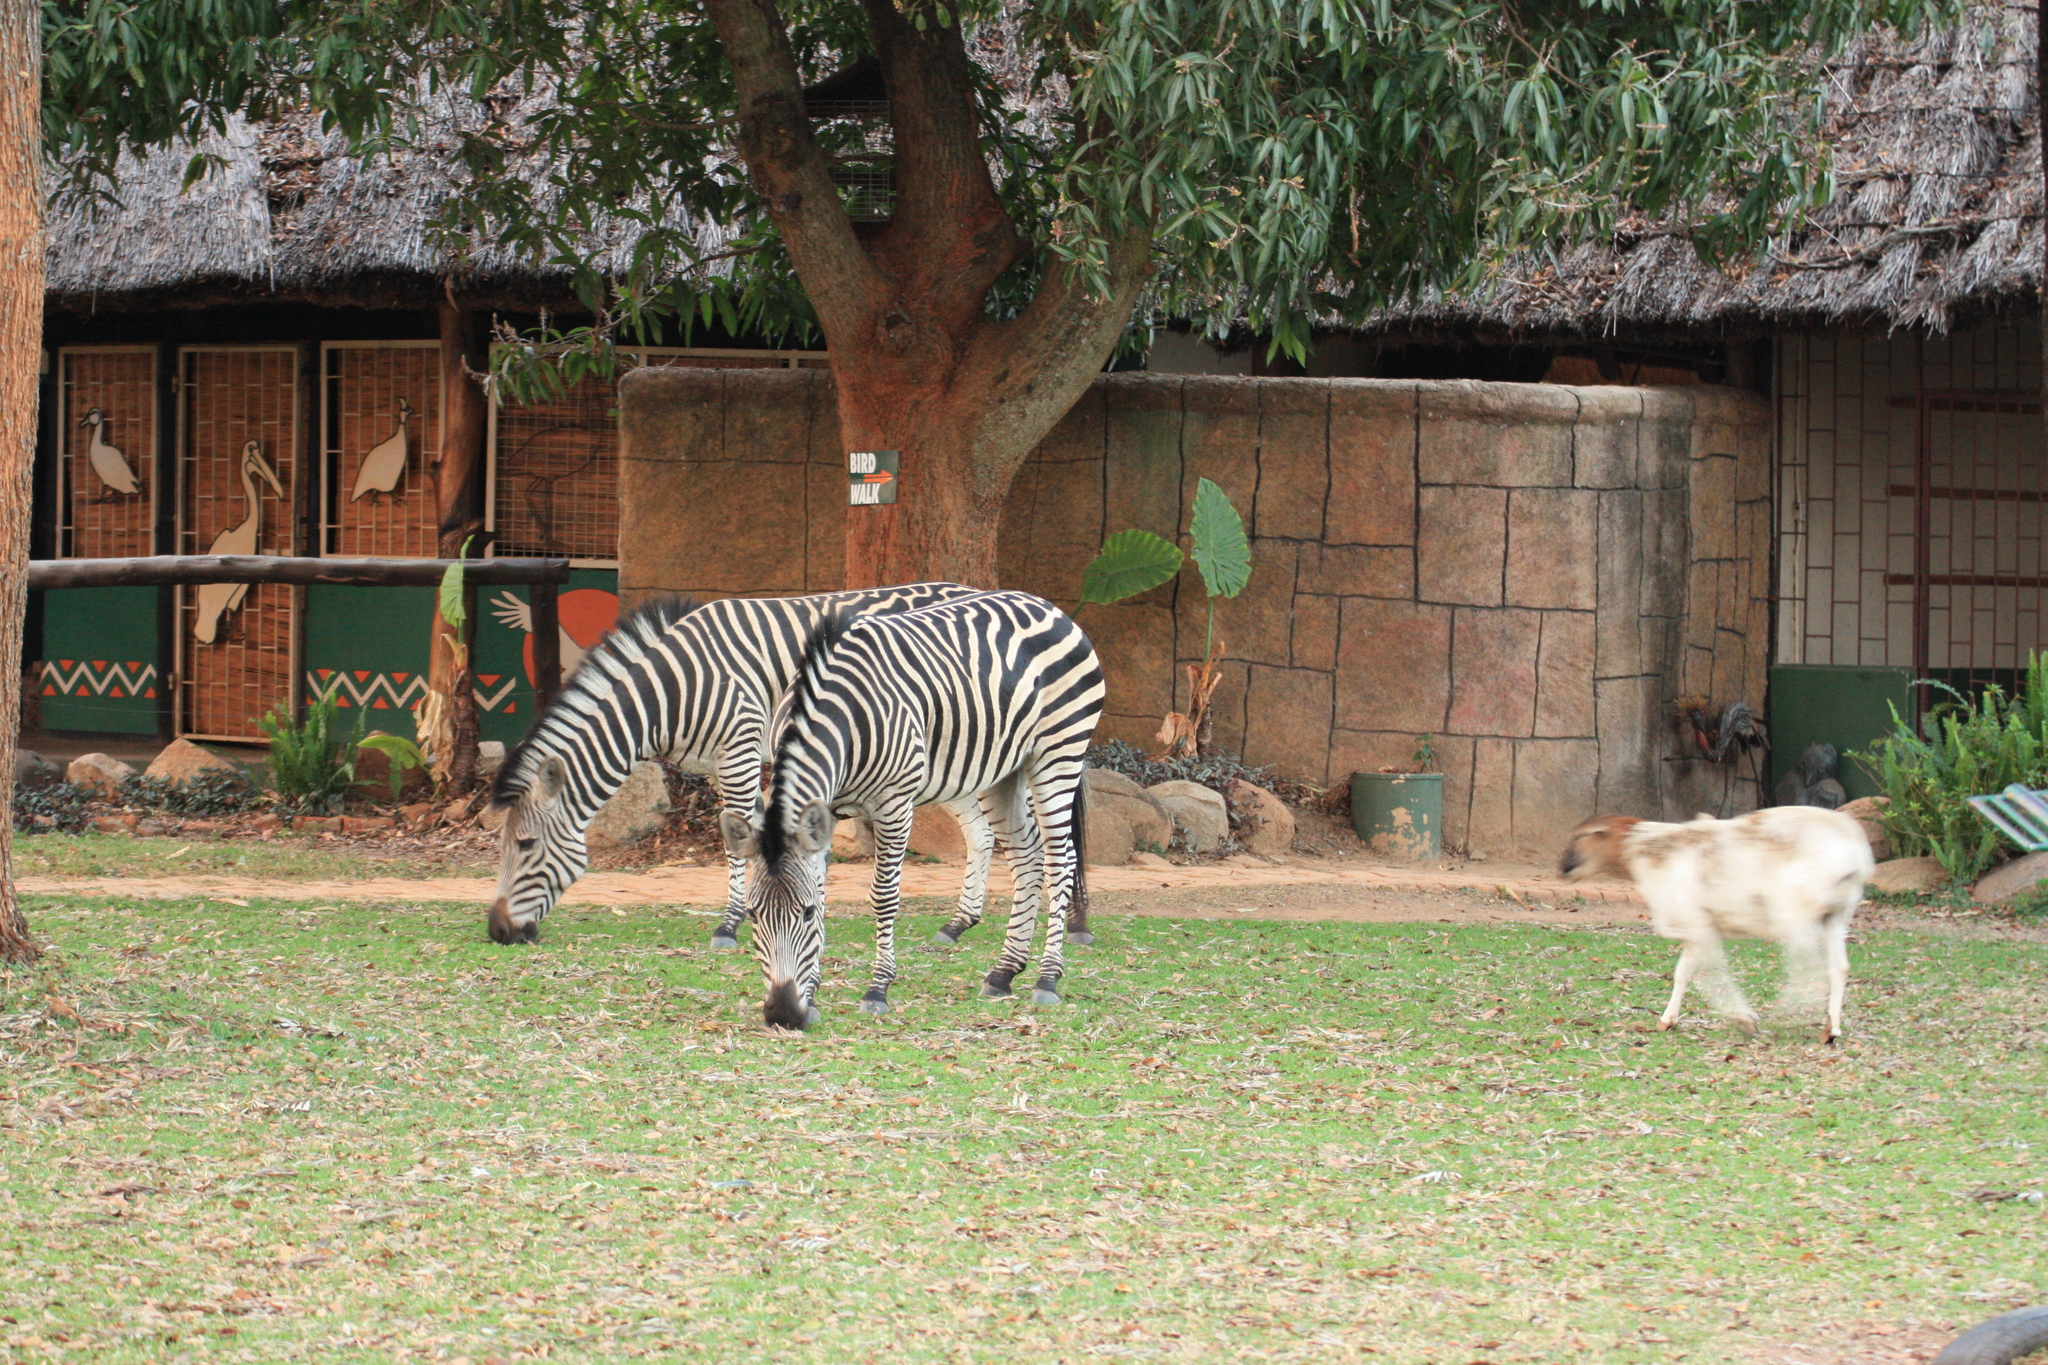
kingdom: Animalia
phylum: Chordata
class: Mammalia
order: Perissodactyla
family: Equidae
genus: Equus
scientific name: Equus quagga
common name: Plains zebra
